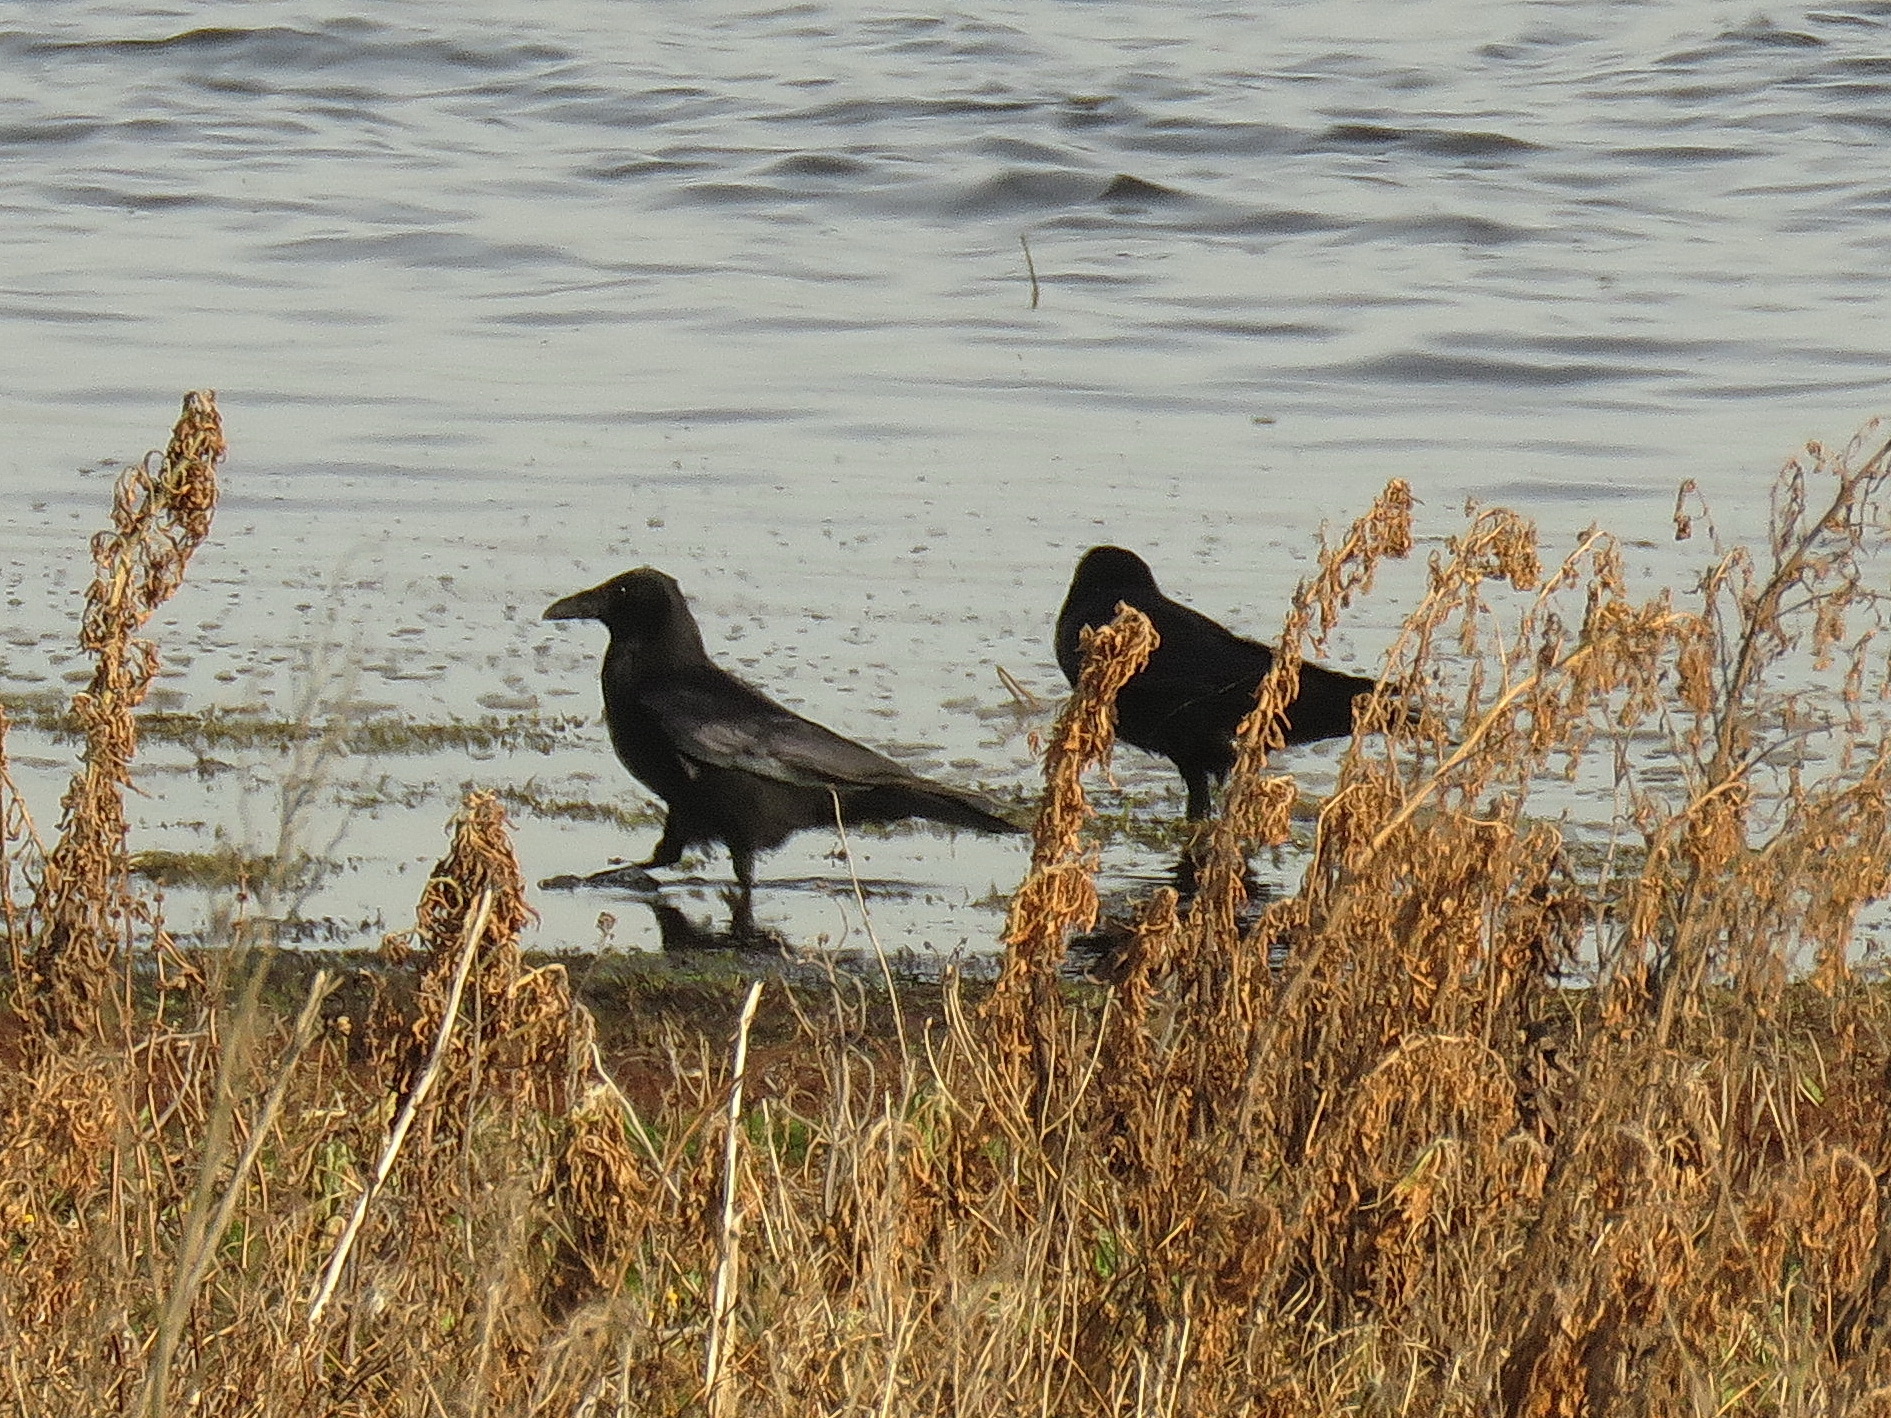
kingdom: Animalia
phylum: Chordata
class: Aves
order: Passeriformes
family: Corvidae
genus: Corvus
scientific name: Corvus corone
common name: Carrion crow
